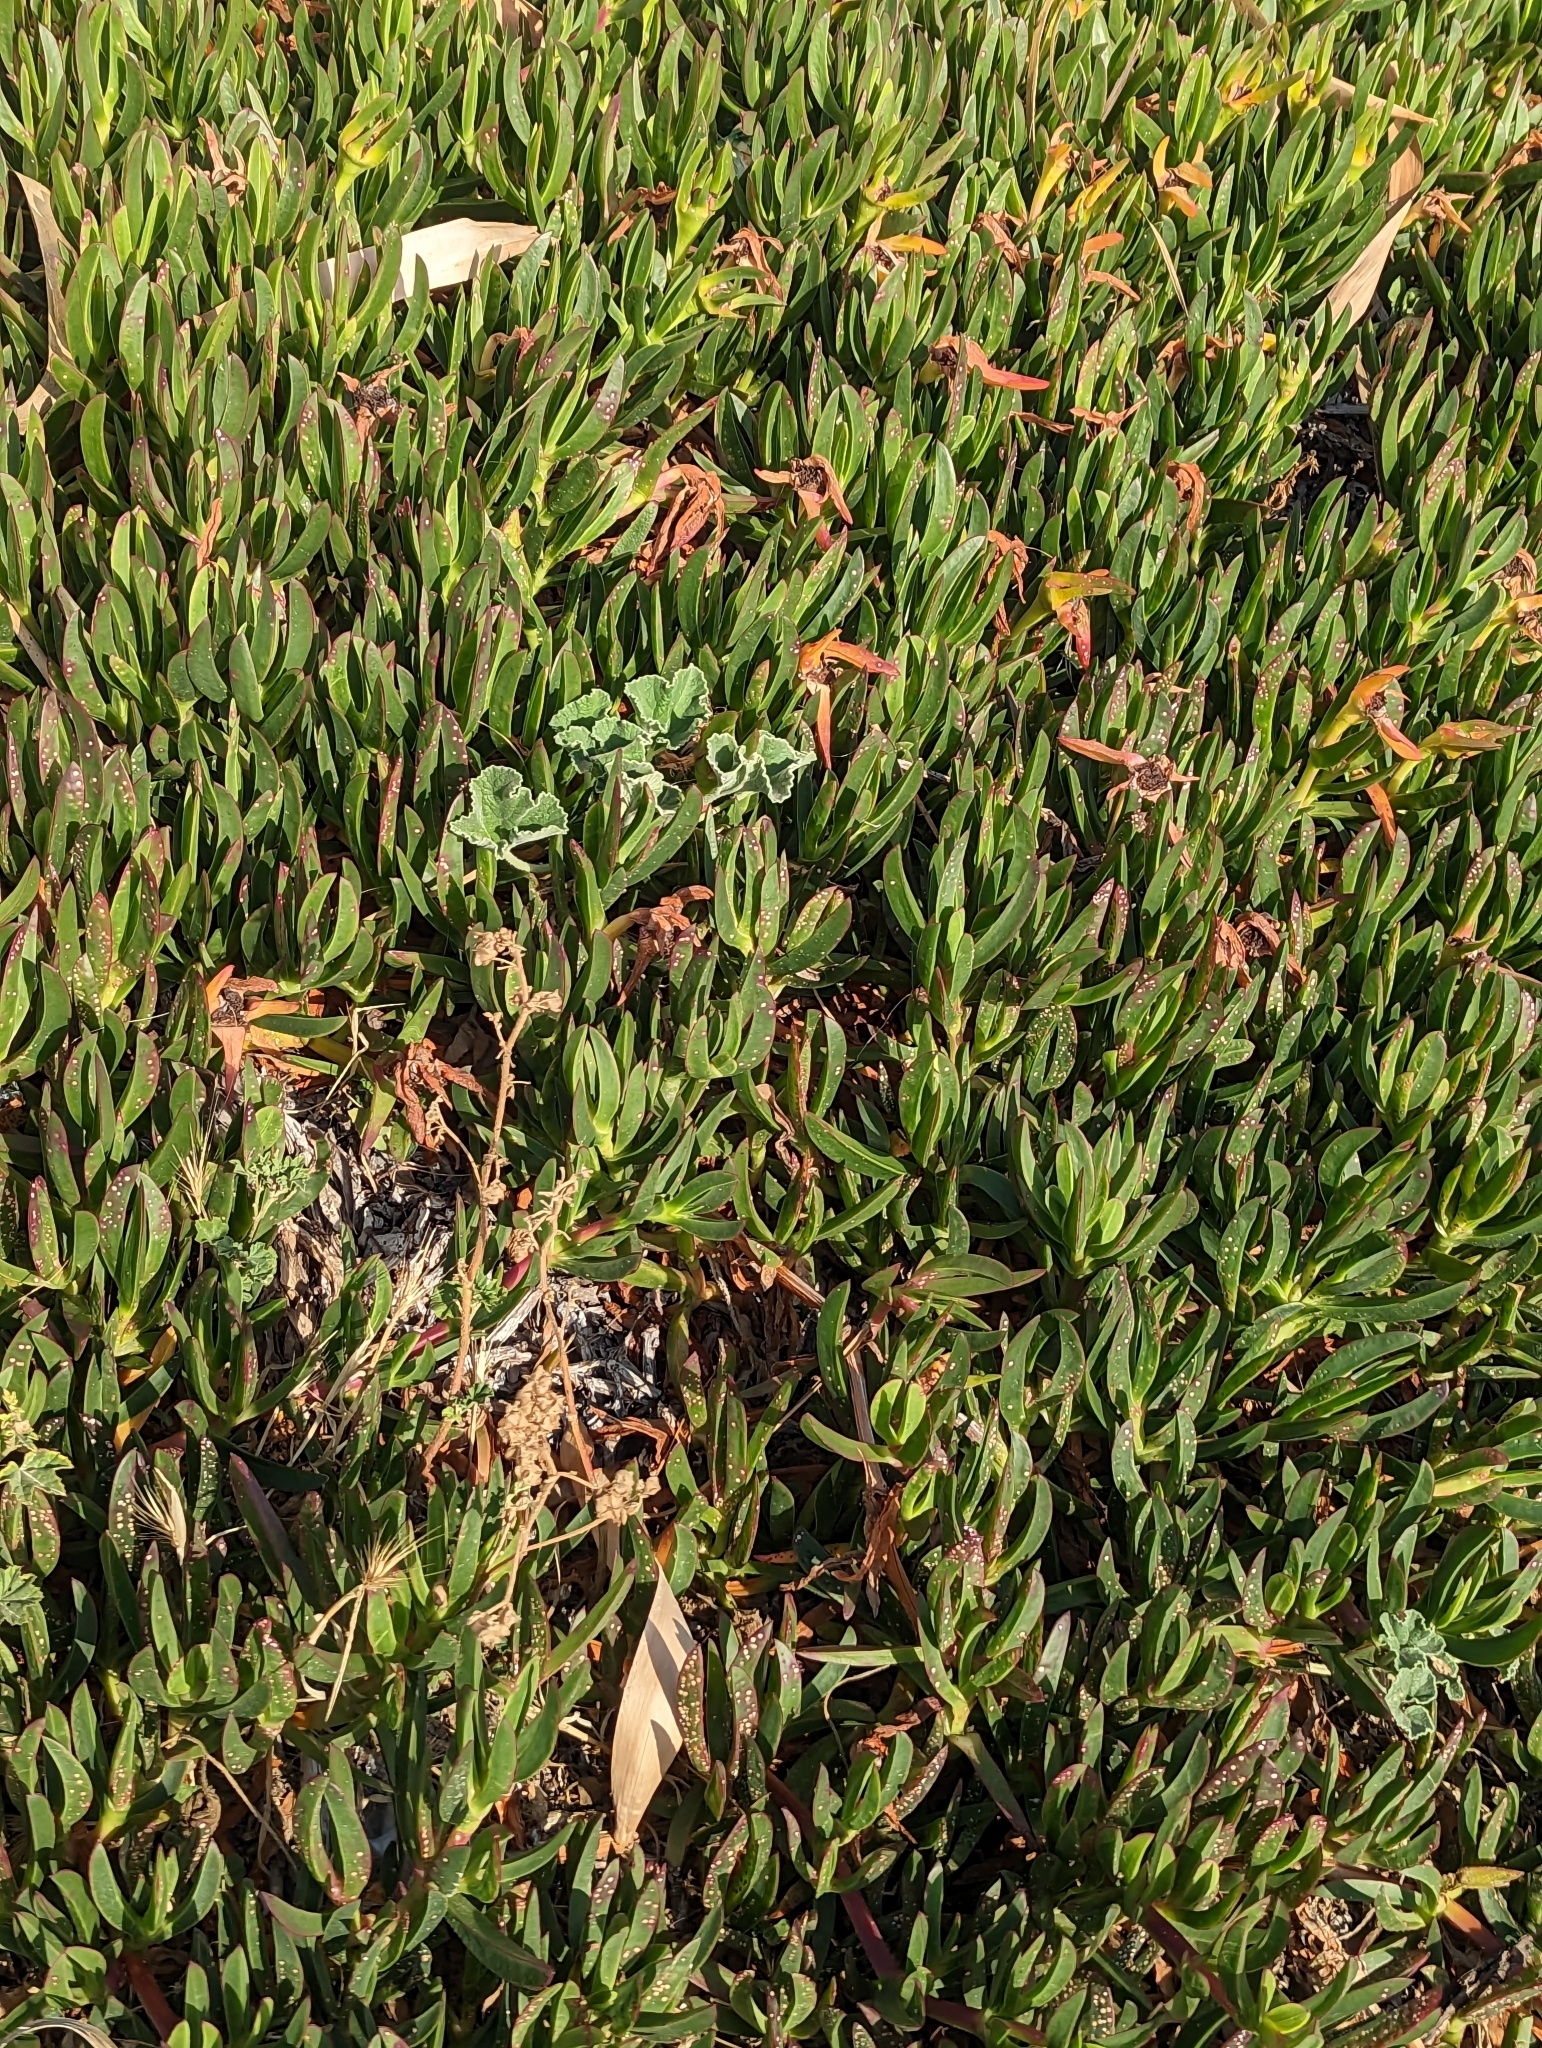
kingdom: Plantae
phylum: Tracheophyta
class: Magnoliopsida
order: Caryophyllales
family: Aizoaceae
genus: Carpobrotus
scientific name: Carpobrotus edulis
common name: Hottentot-fig
